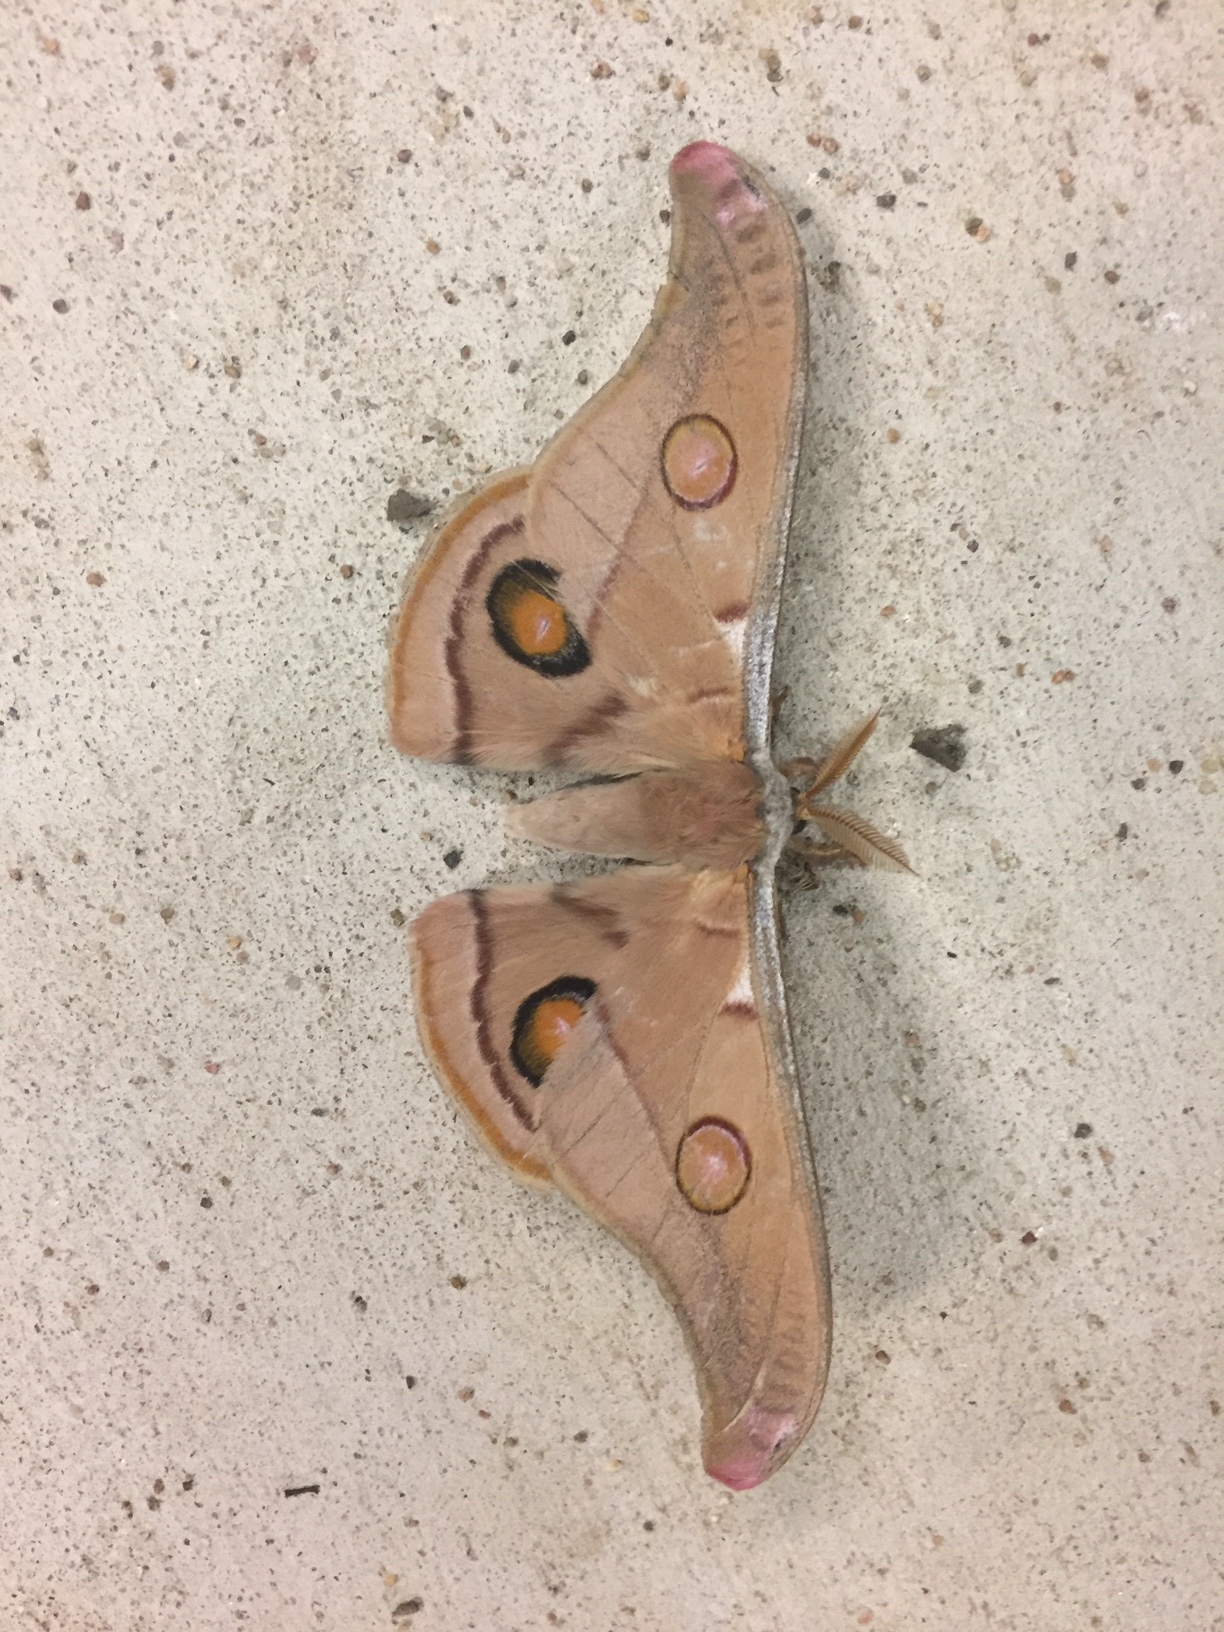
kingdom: Animalia
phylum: Arthropoda
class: Insecta
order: Lepidoptera
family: Saturniidae
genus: Opodiphthera
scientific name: Opodiphthera
